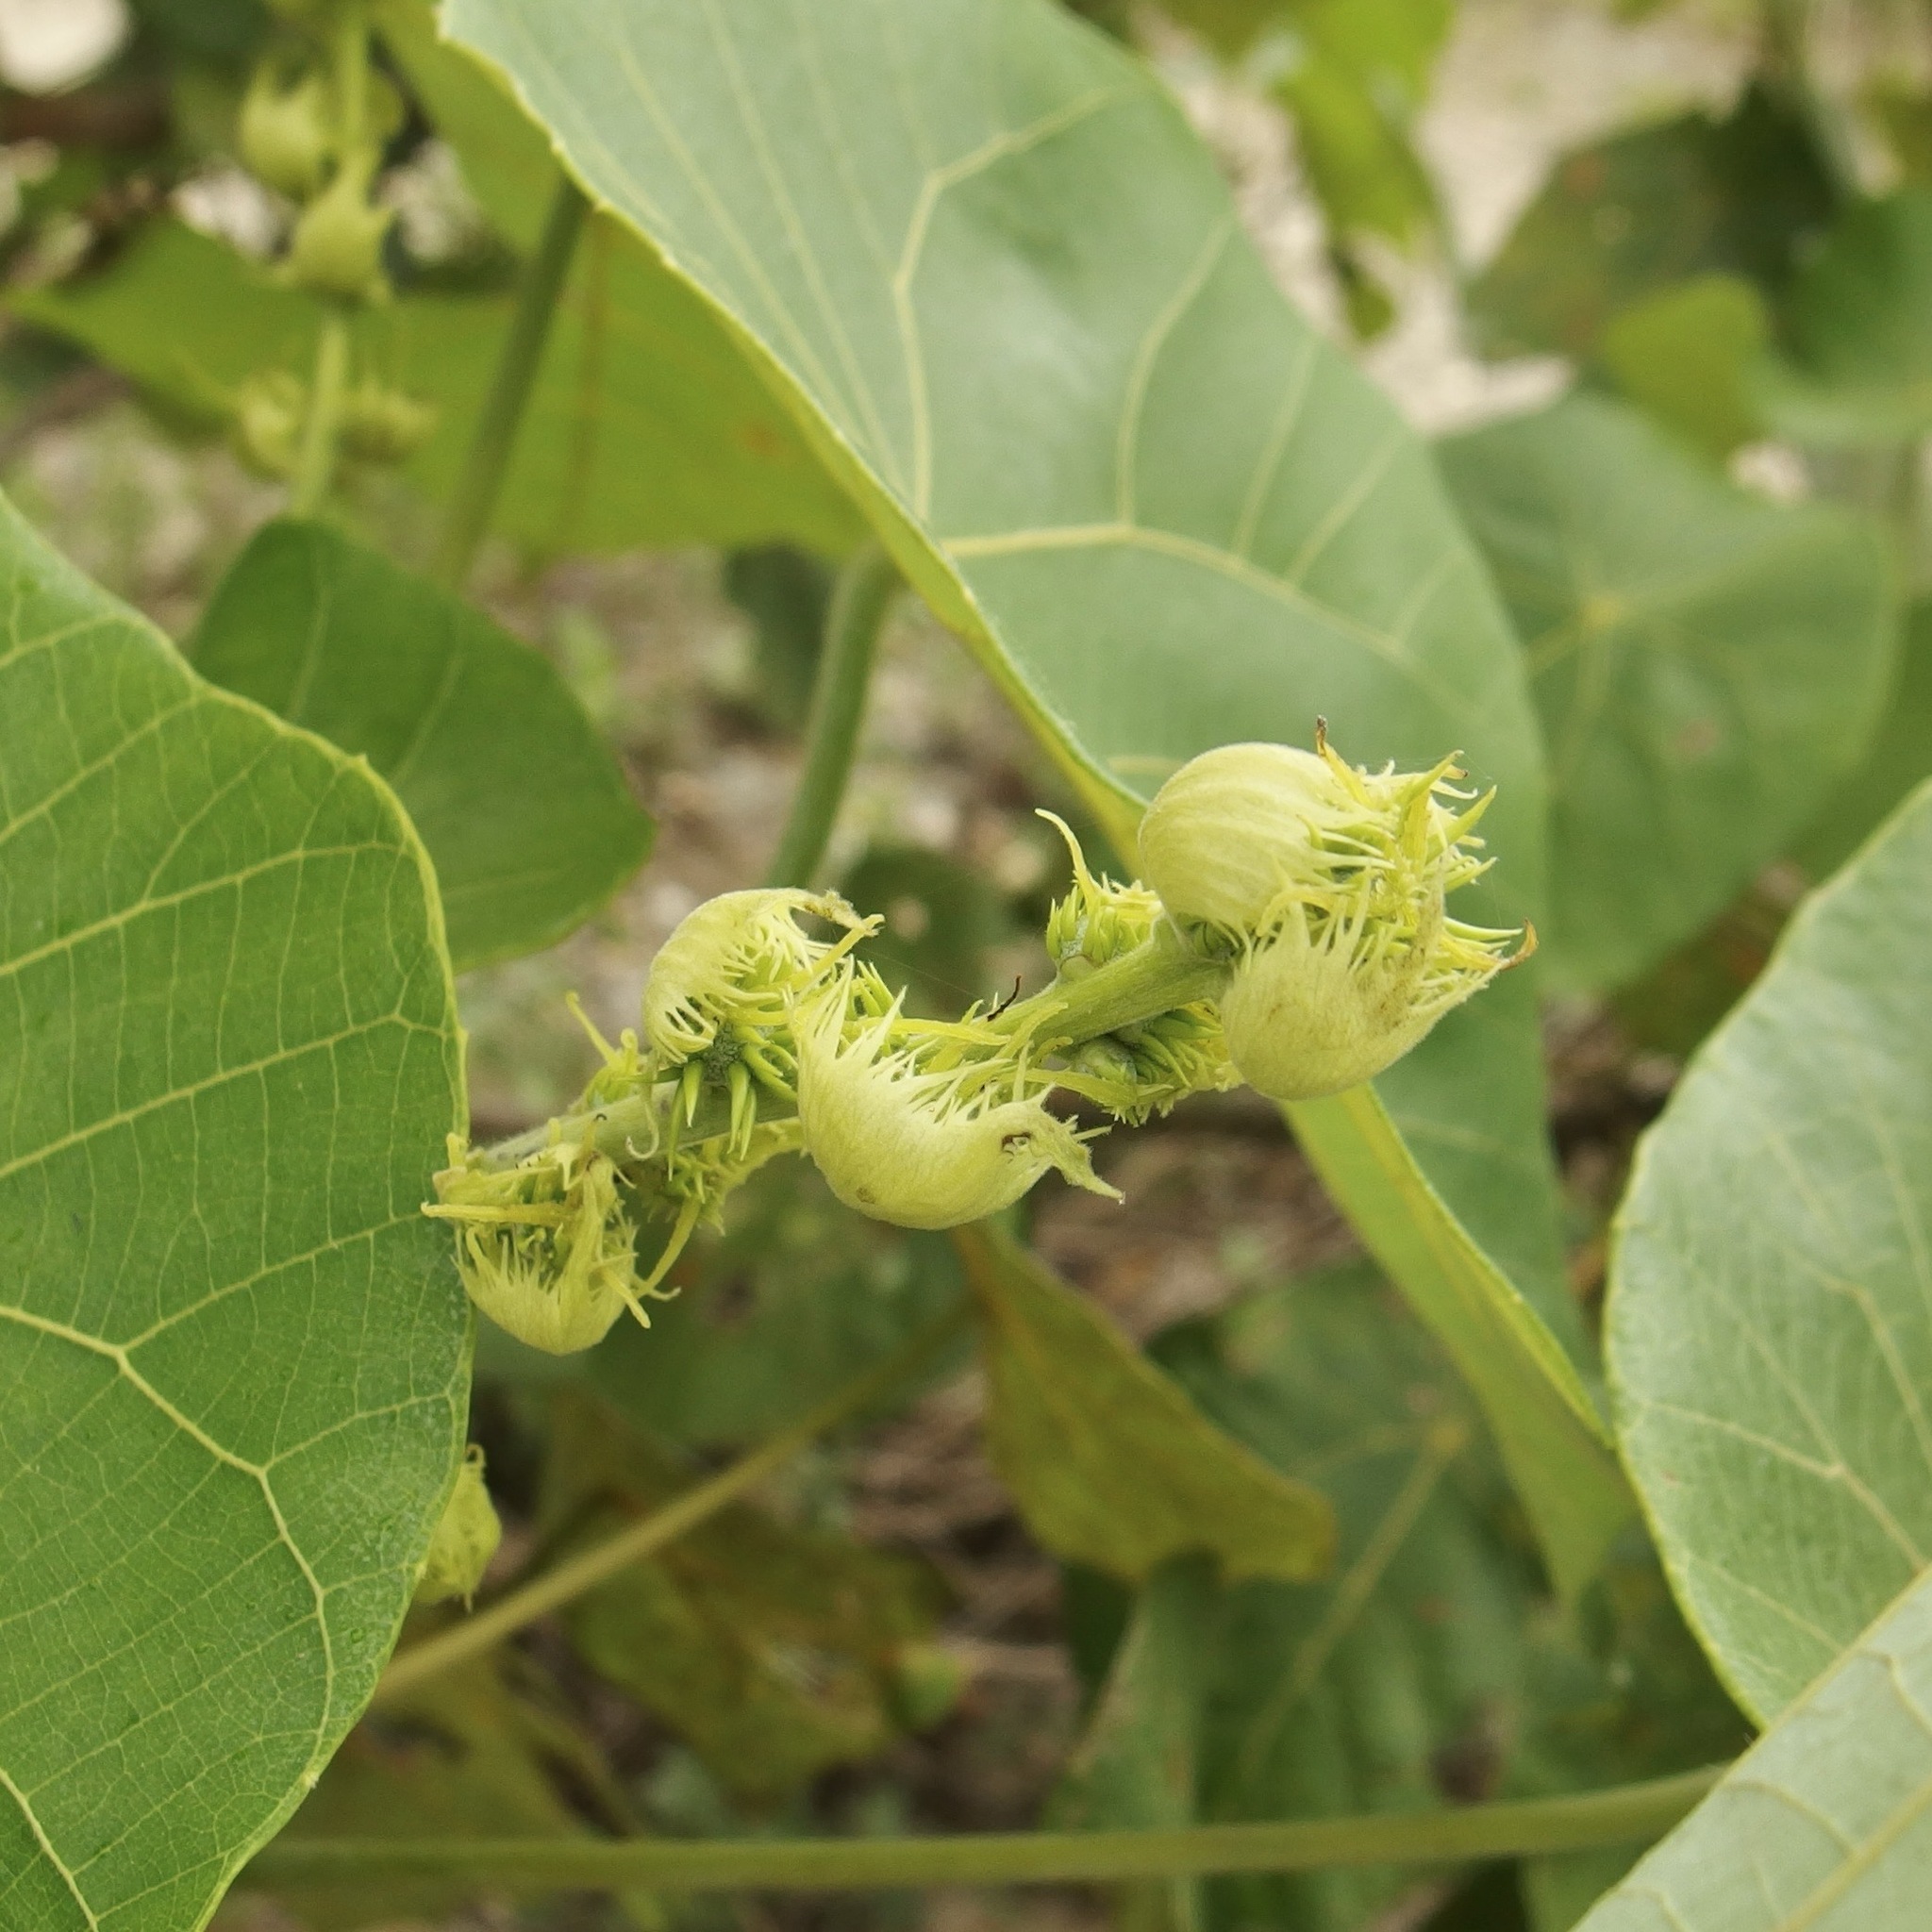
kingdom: Plantae
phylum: Tracheophyta
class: Magnoliopsida
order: Malpighiales
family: Euphorbiaceae
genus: Macaranga
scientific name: Macaranga tanarius
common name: Parasol leaf tree
